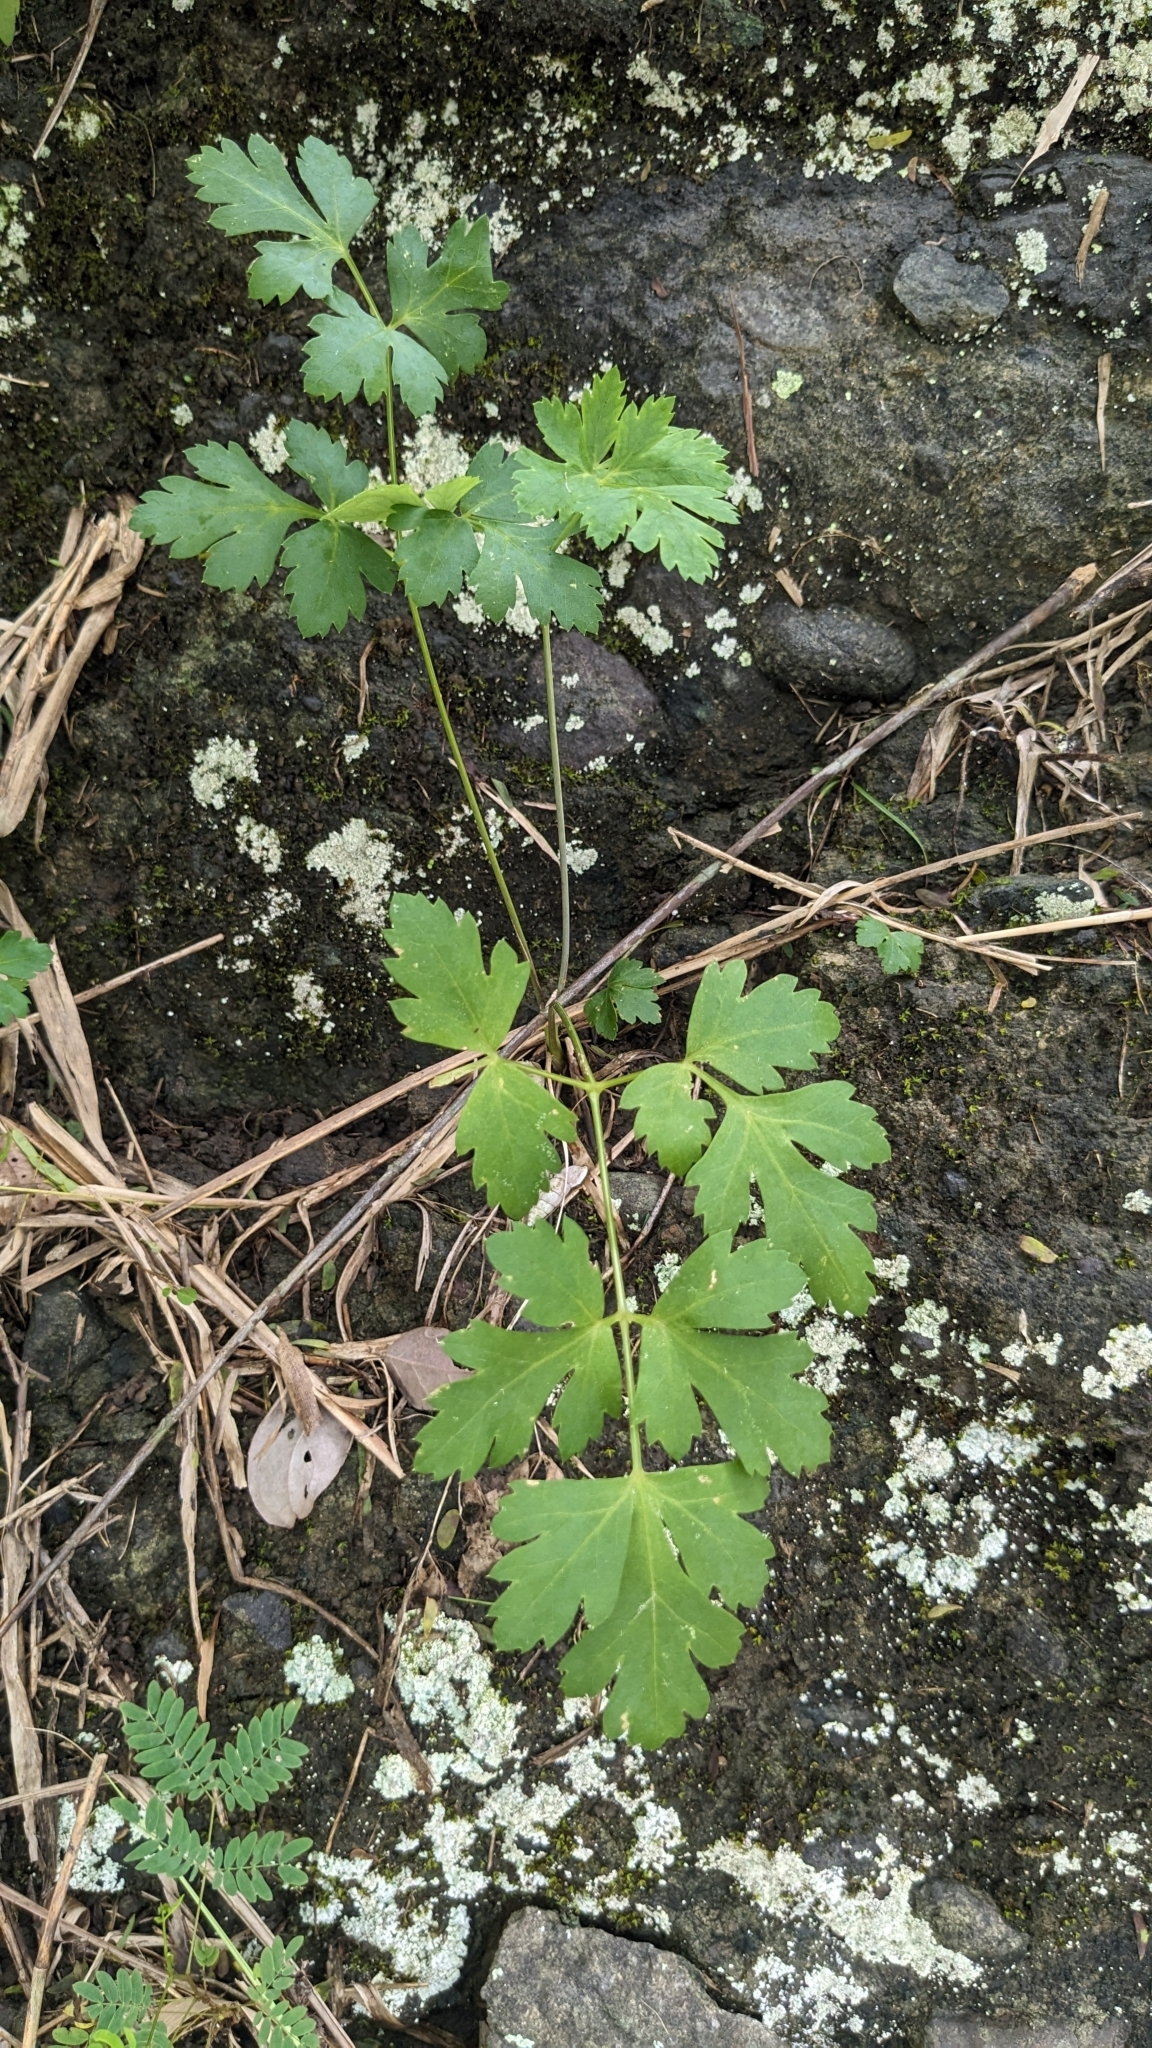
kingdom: Plantae
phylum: Tracheophyta
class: Magnoliopsida
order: Apiales
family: Apiaceae
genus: Kitagawia
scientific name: Kitagawia formosana
